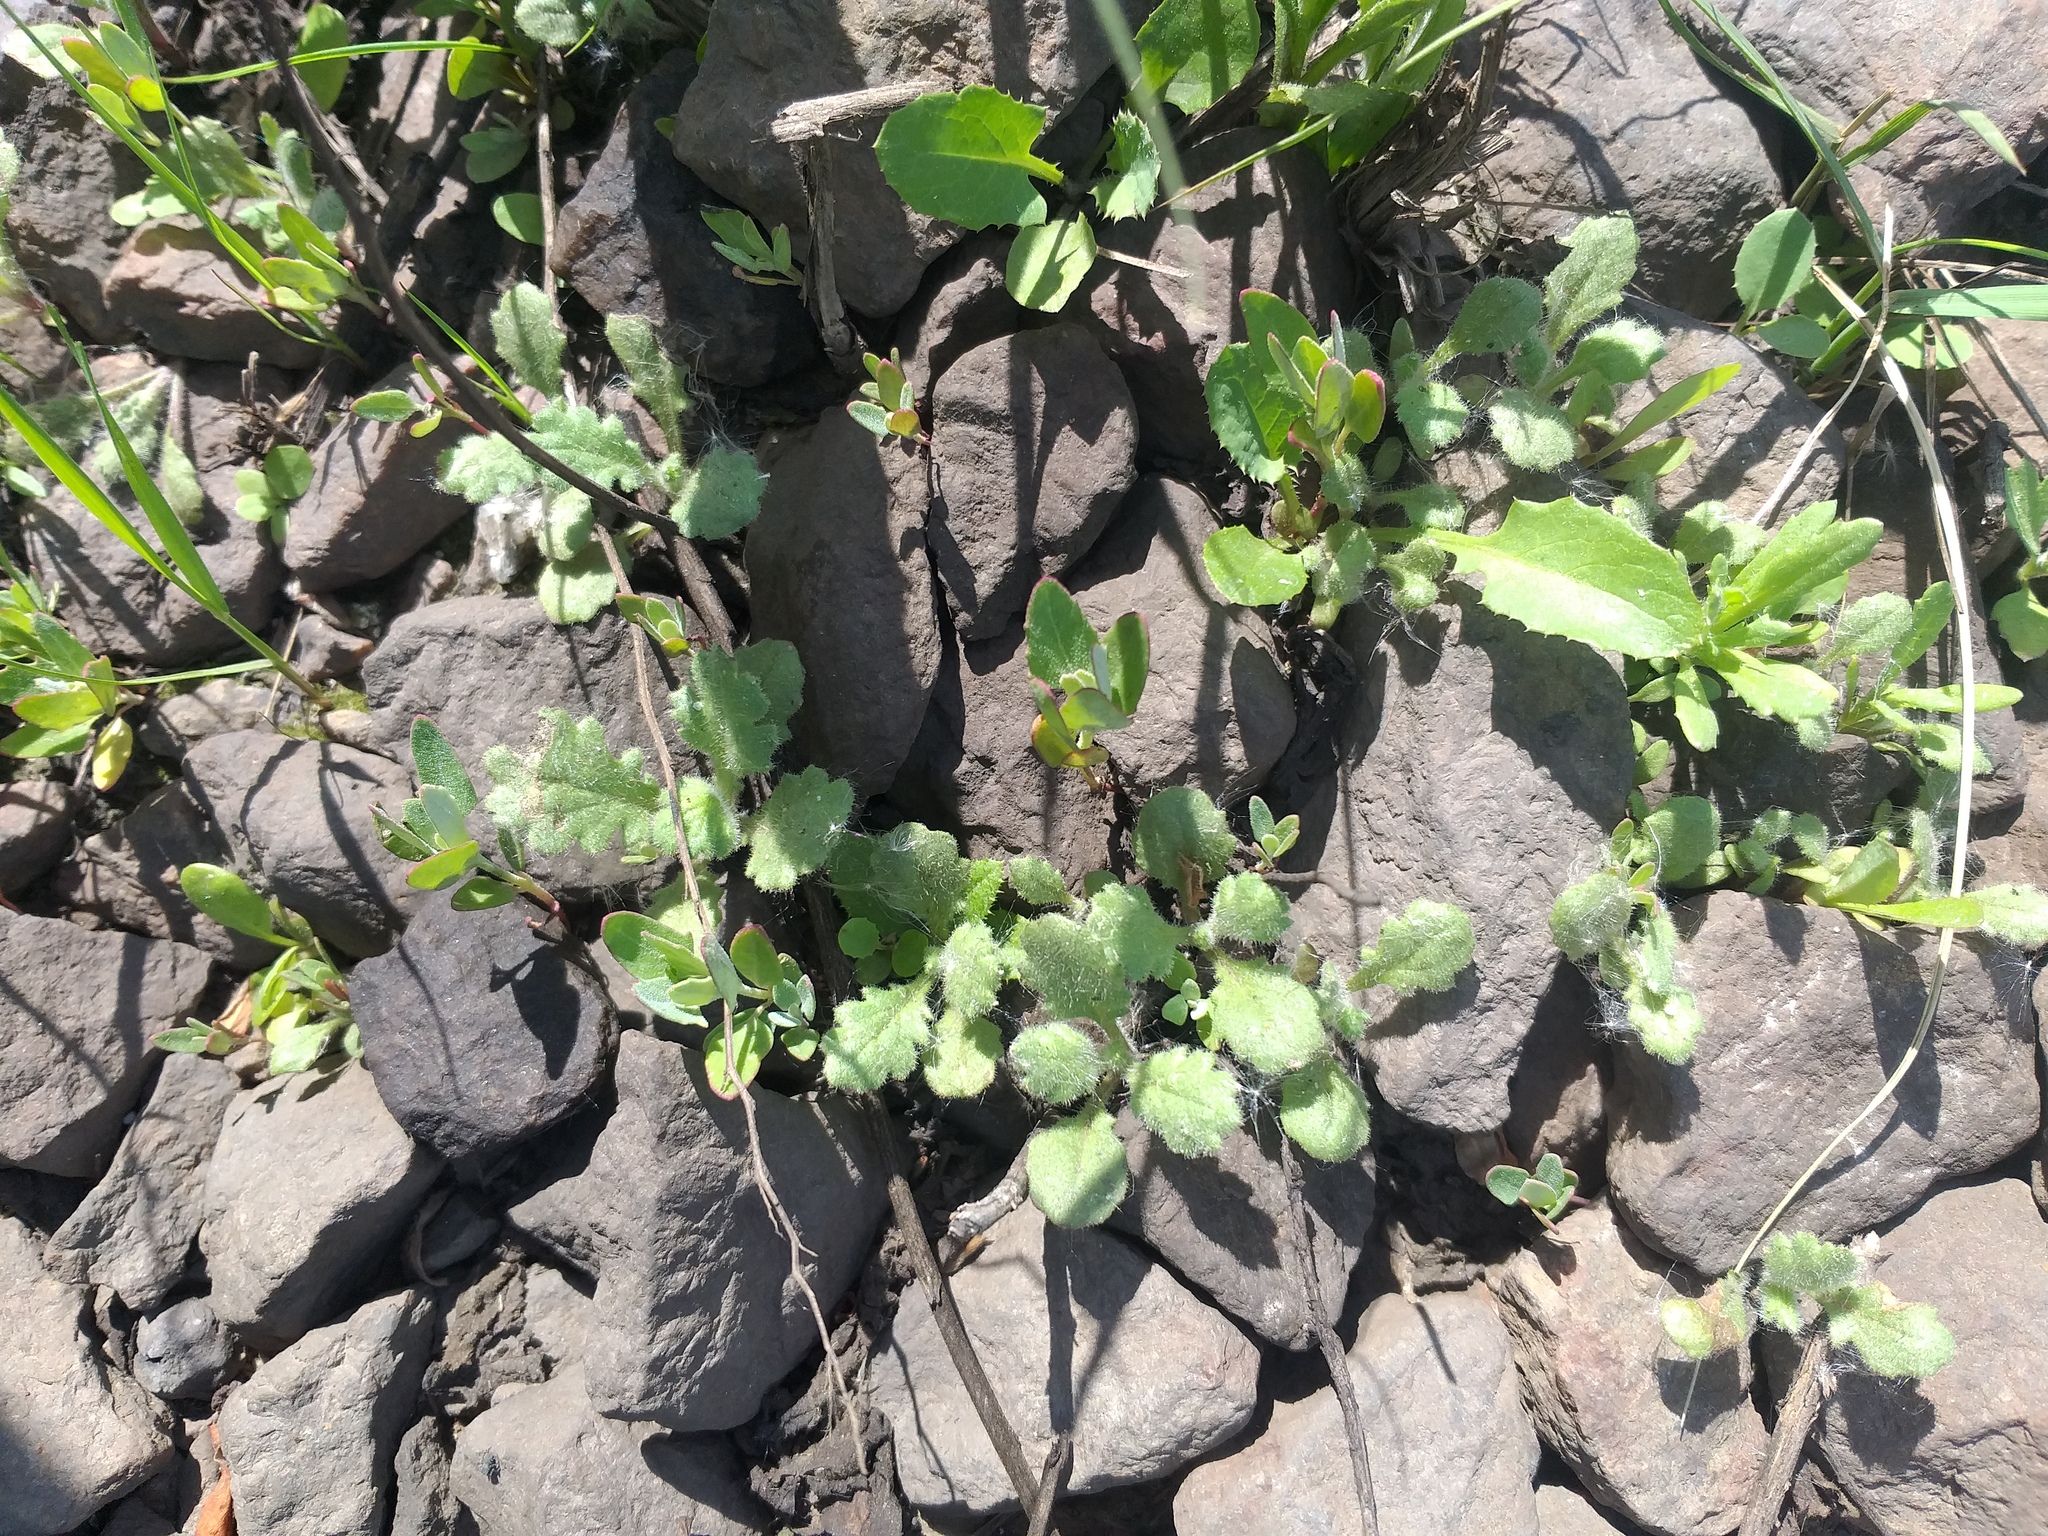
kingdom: Plantae
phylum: Tracheophyta
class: Magnoliopsida
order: Asterales
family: Asteraceae
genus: Senecio
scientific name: Senecio viscosus
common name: Sticky groundsel
